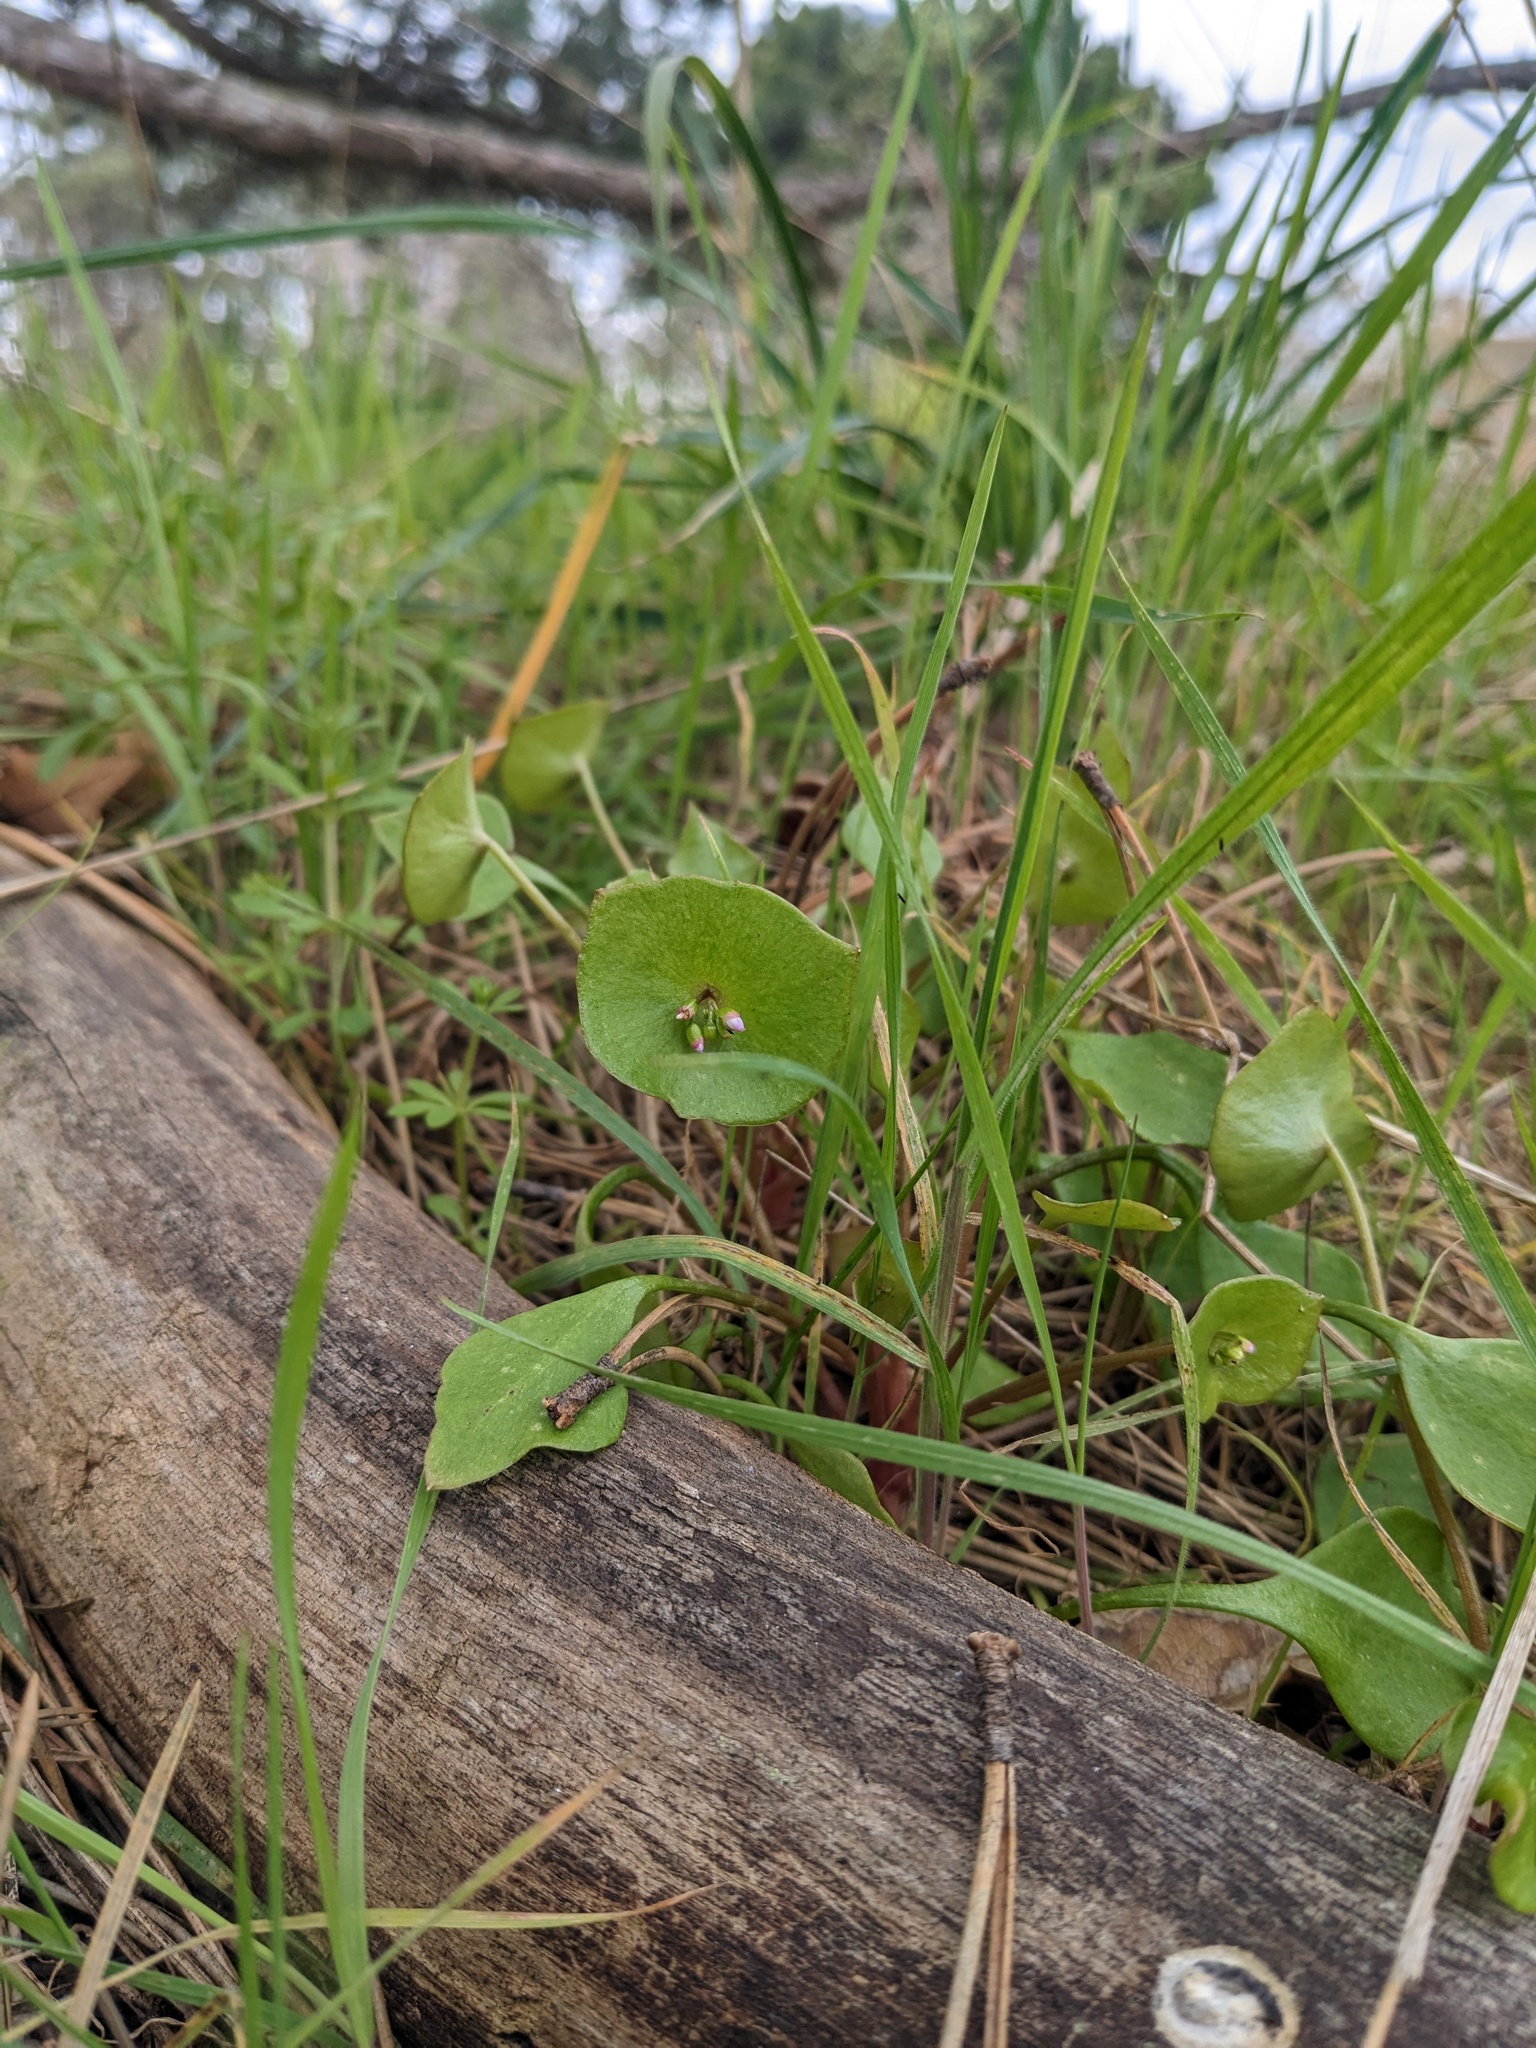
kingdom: Plantae
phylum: Tracheophyta
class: Magnoliopsida
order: Caryophyllales
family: Montiaceae
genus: Claytonia
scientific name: Claytonia perfoliata
